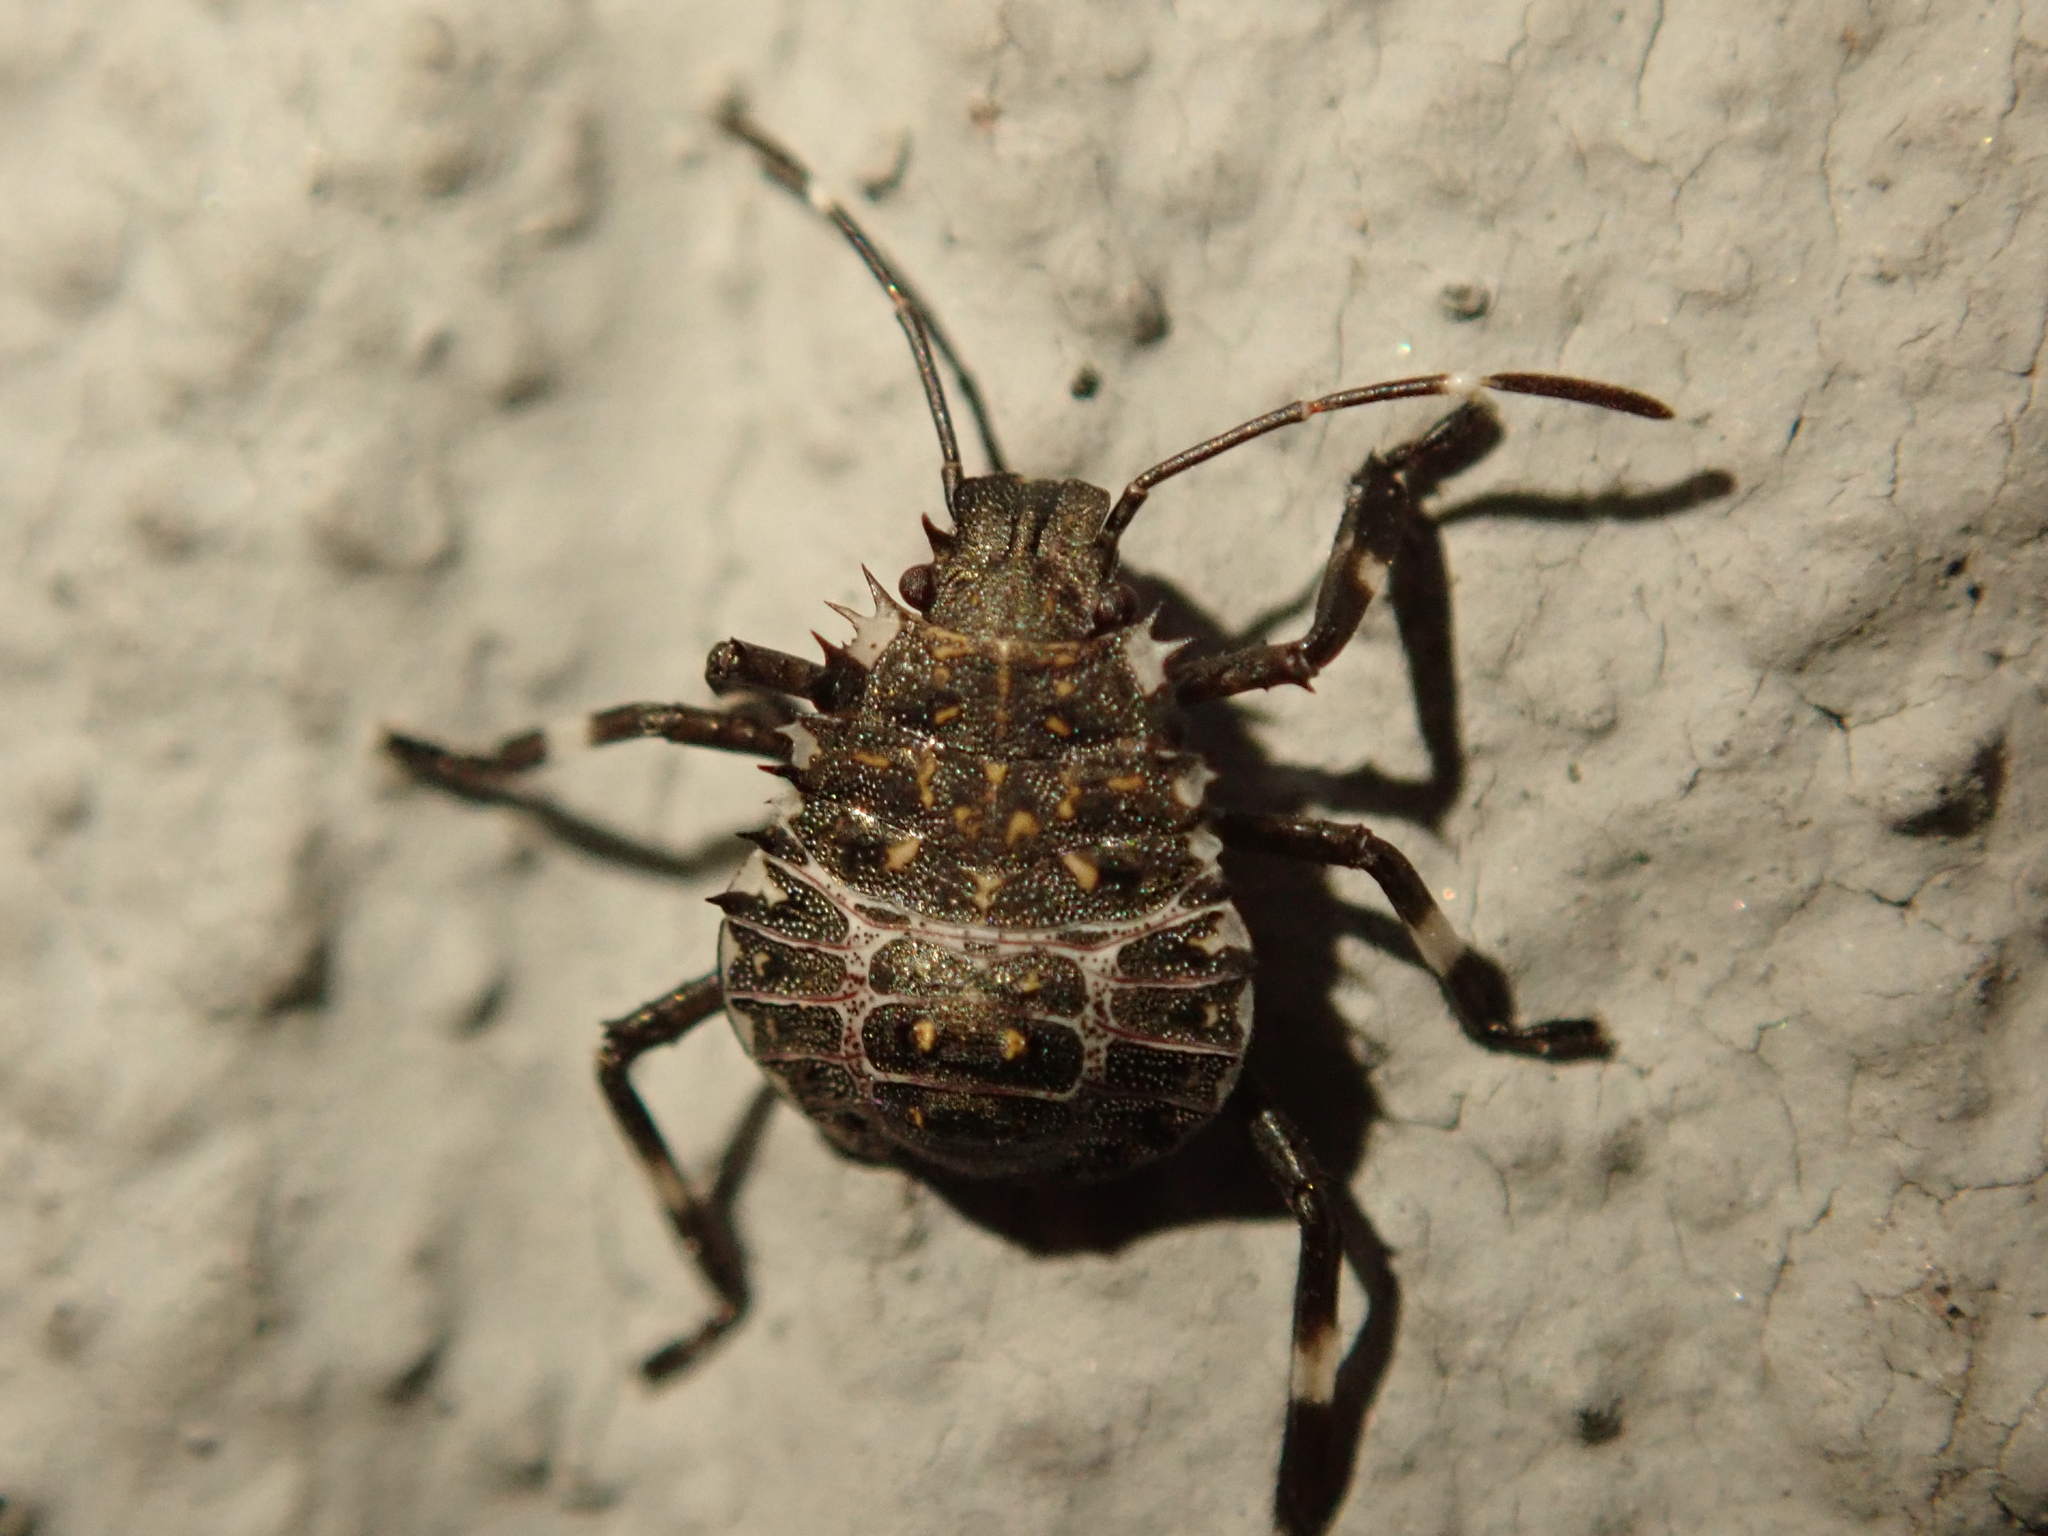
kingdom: Animalia
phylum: Arthropoda
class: Insecta
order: Hemiptera
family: Pentatomidae
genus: Halyomorpha
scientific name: Halyomorpha halys
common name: Brown marmorated stink bug
